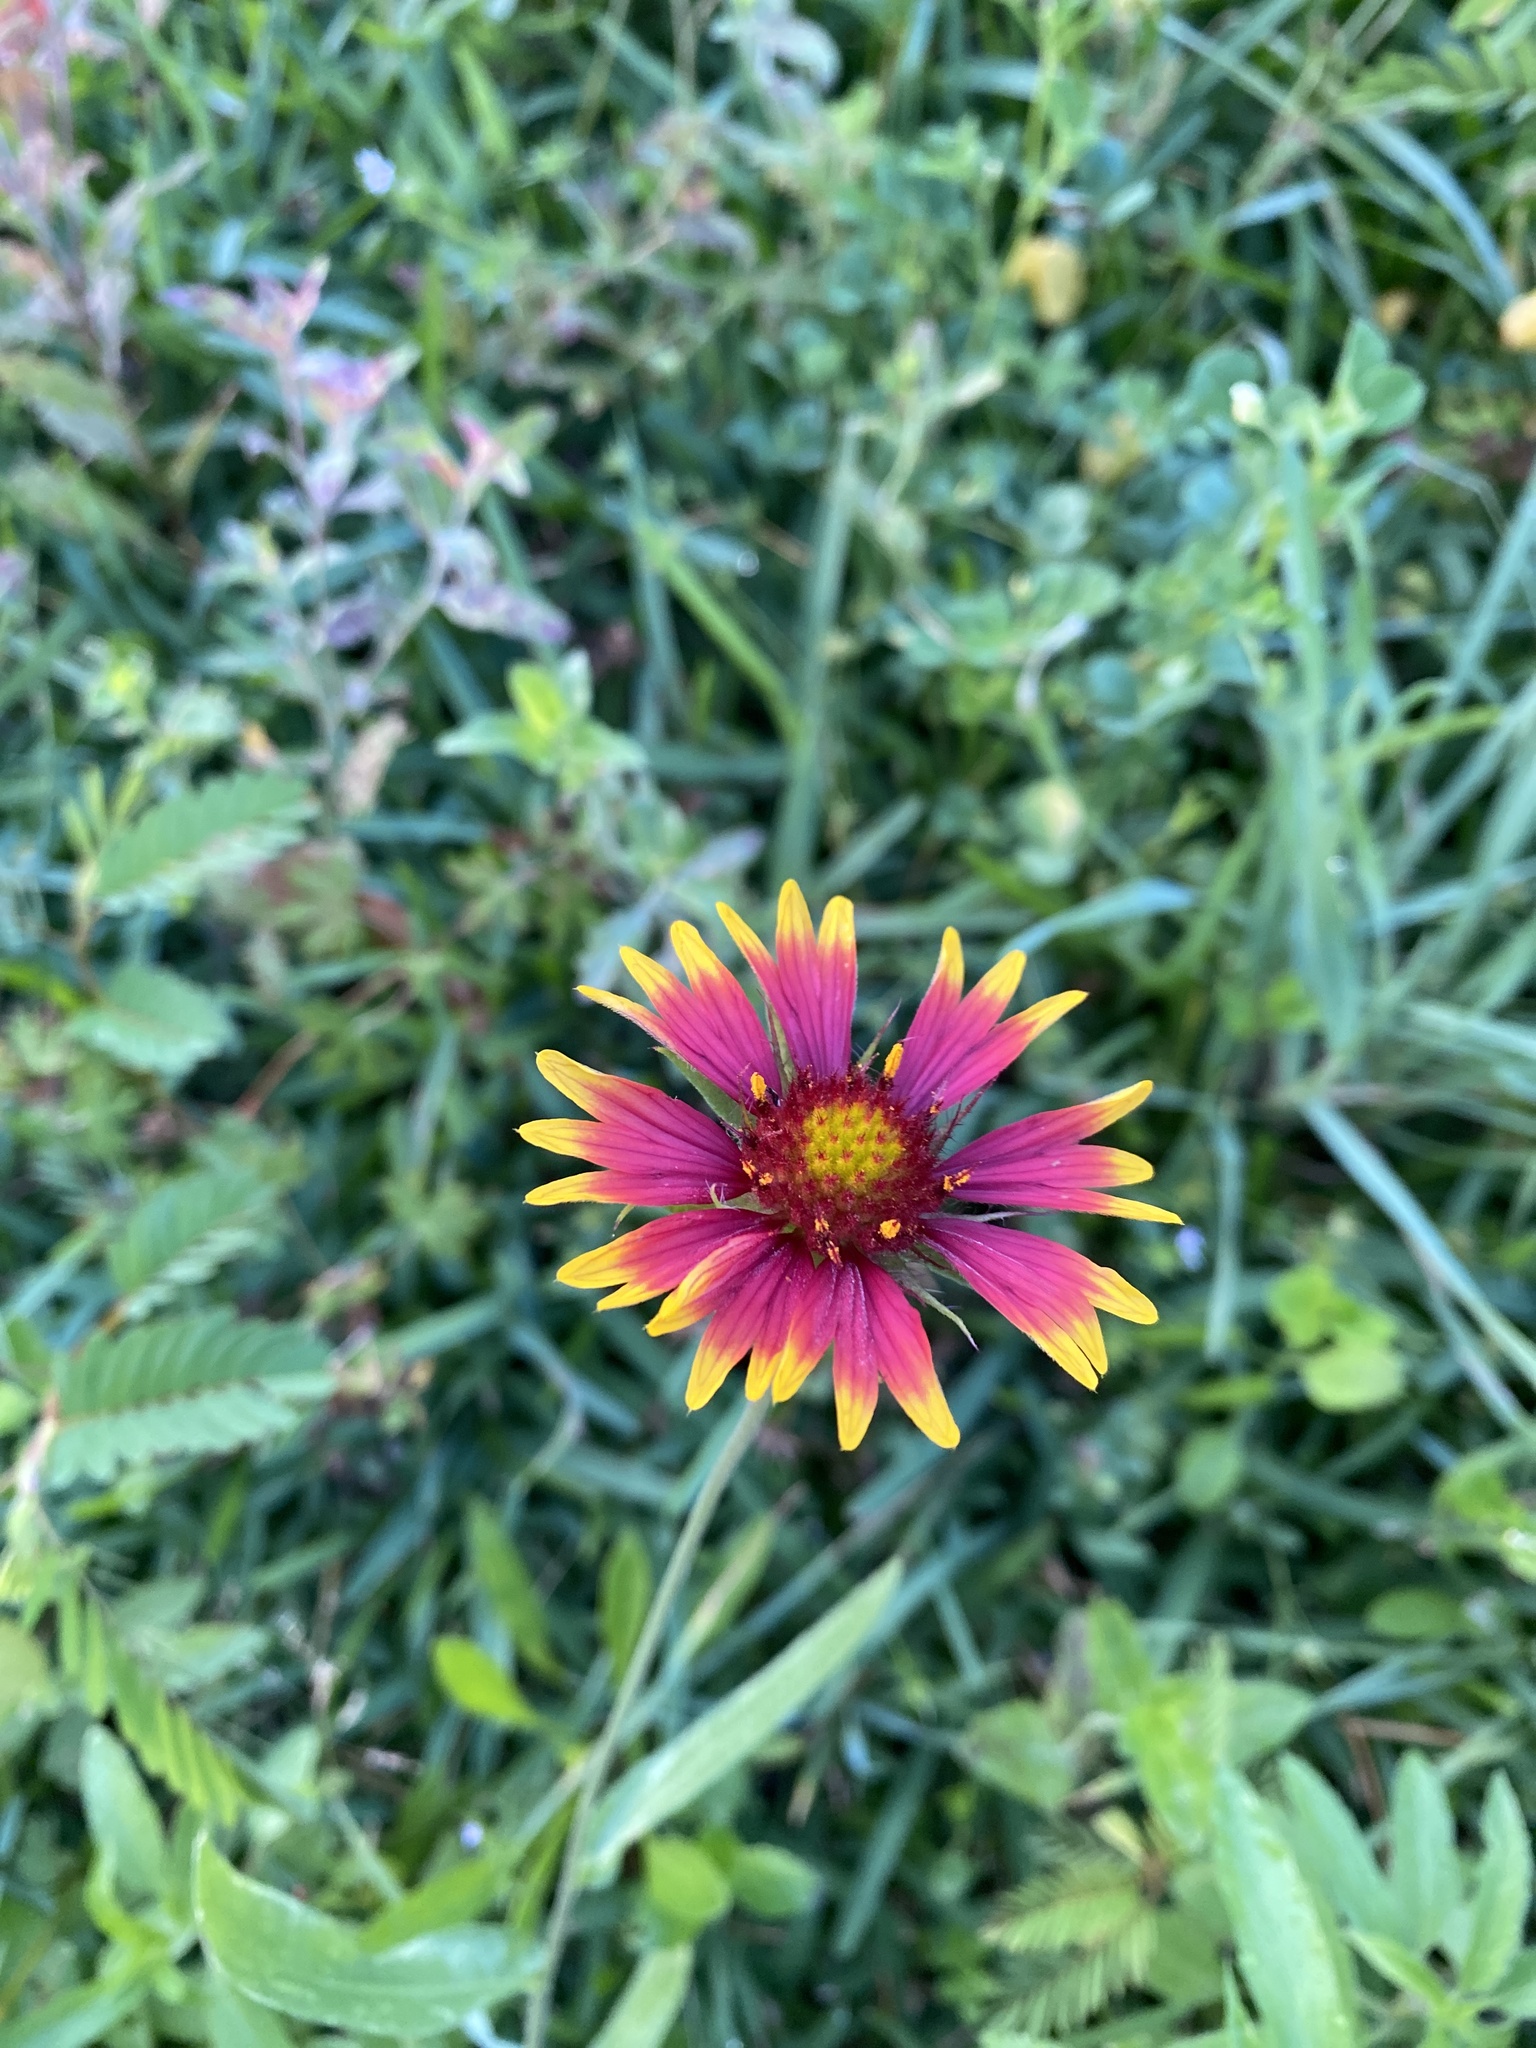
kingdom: Plantae
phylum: Tracheophyta
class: Magnoliopsida
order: Asterales
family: Asteraceae
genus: Gaillardia
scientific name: Gaillardia pulchella
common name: Firewheel
